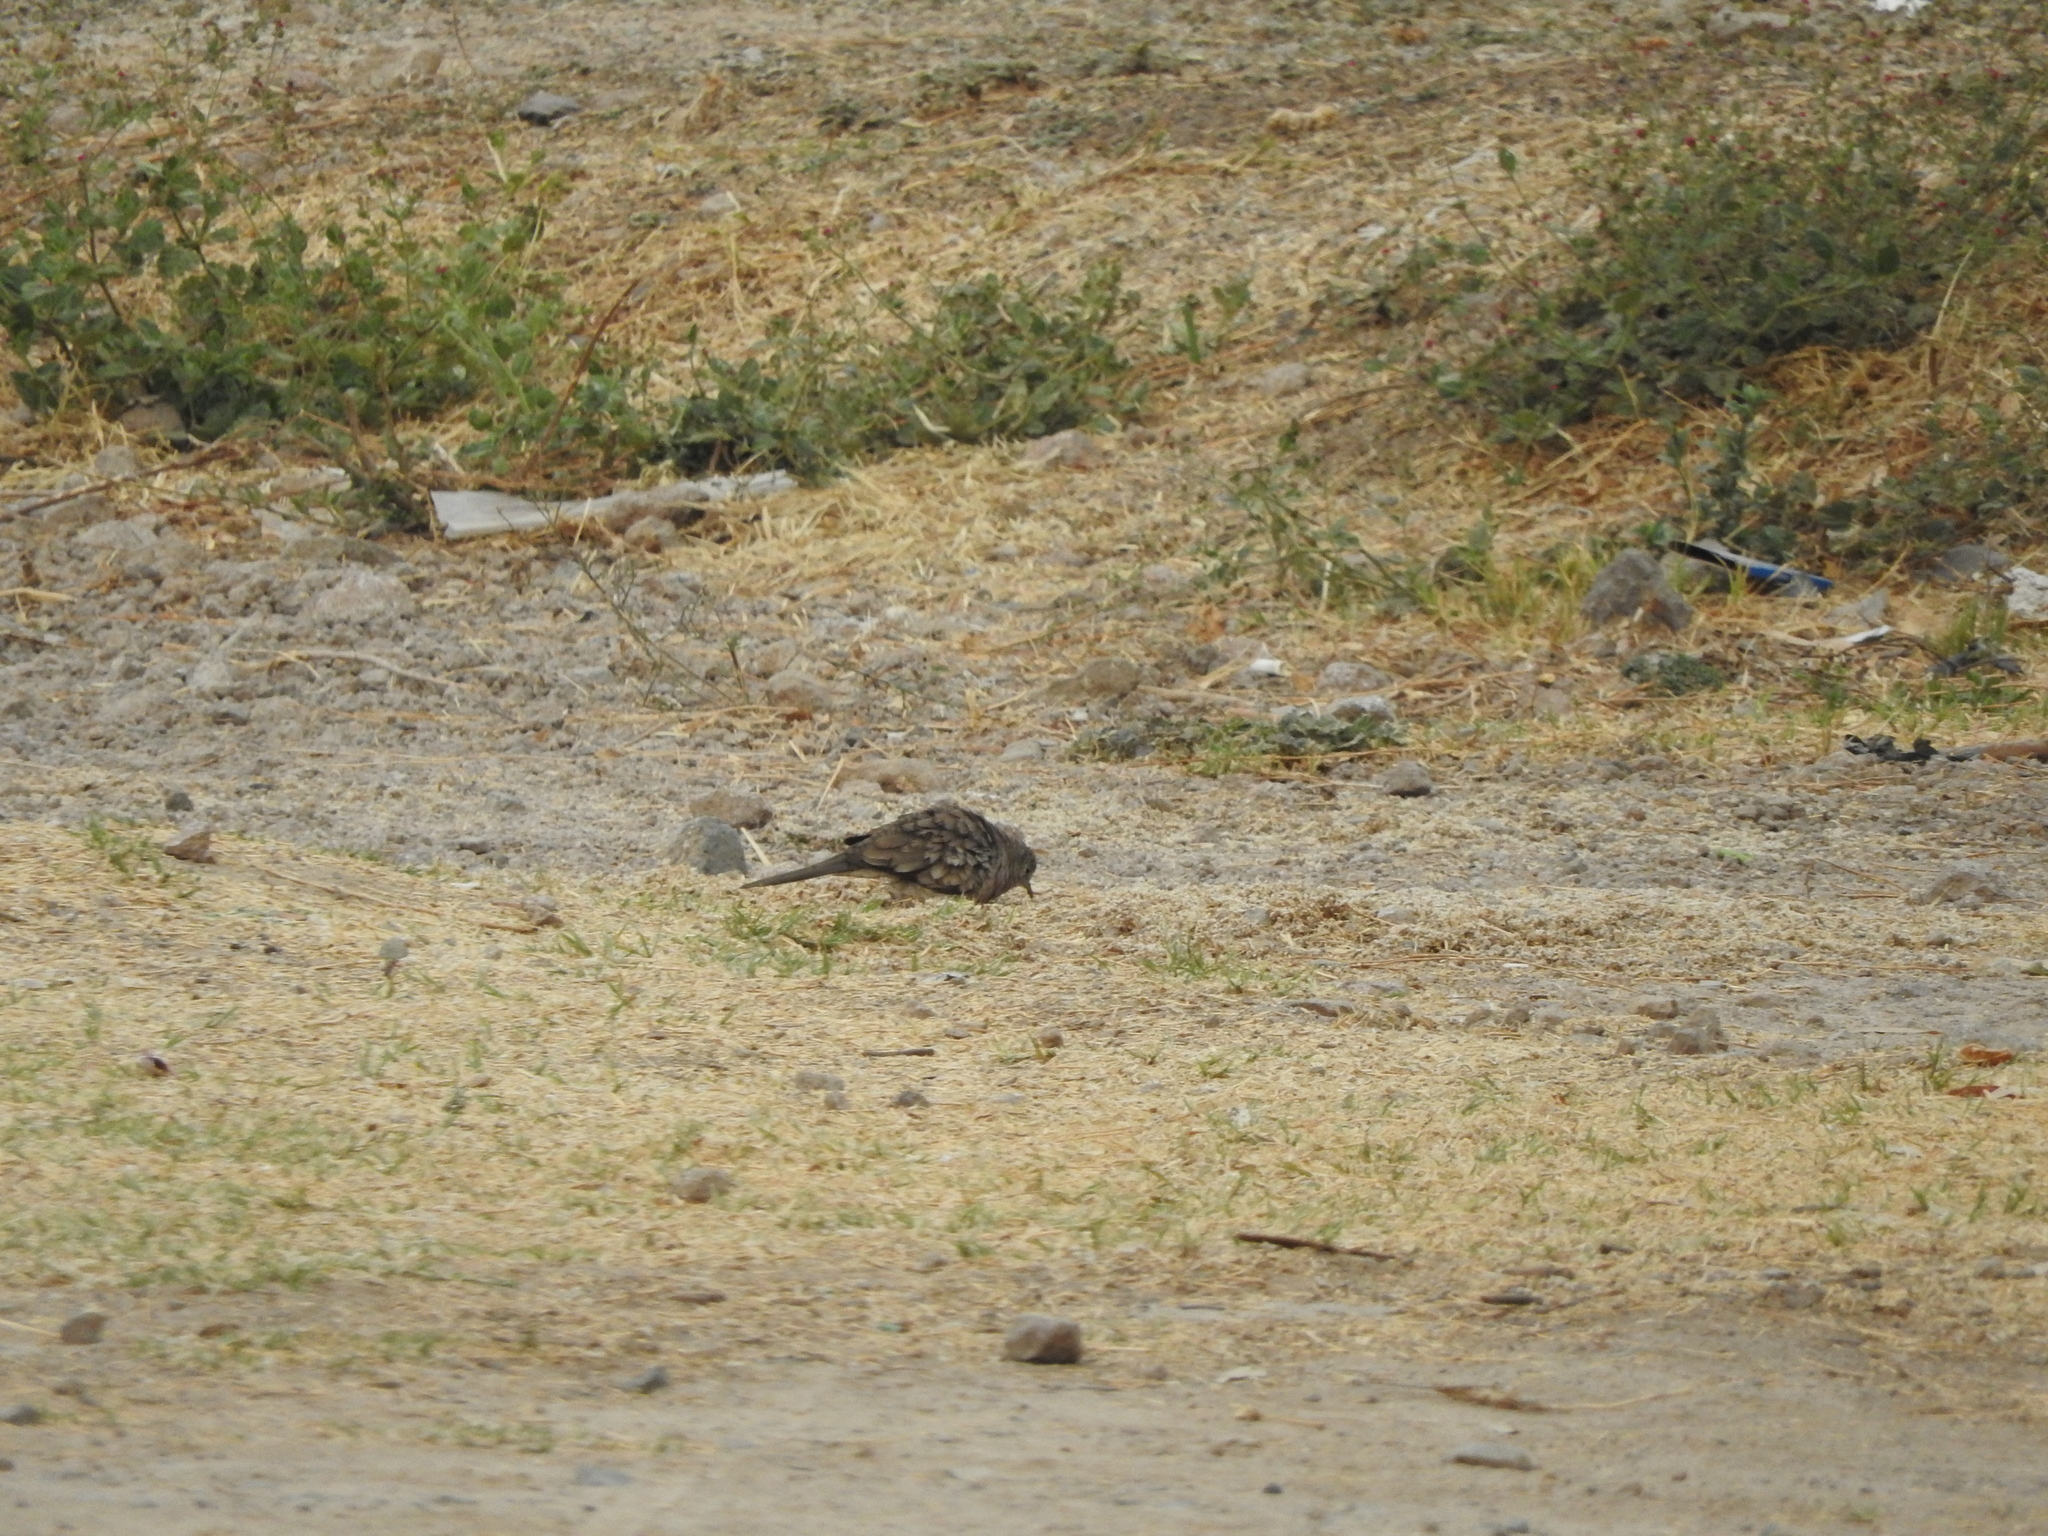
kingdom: Animalia
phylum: Chordata
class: Aves
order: Columbiformes
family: Columbidae
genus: Columbina
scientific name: Columbina inca
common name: Inca dove
